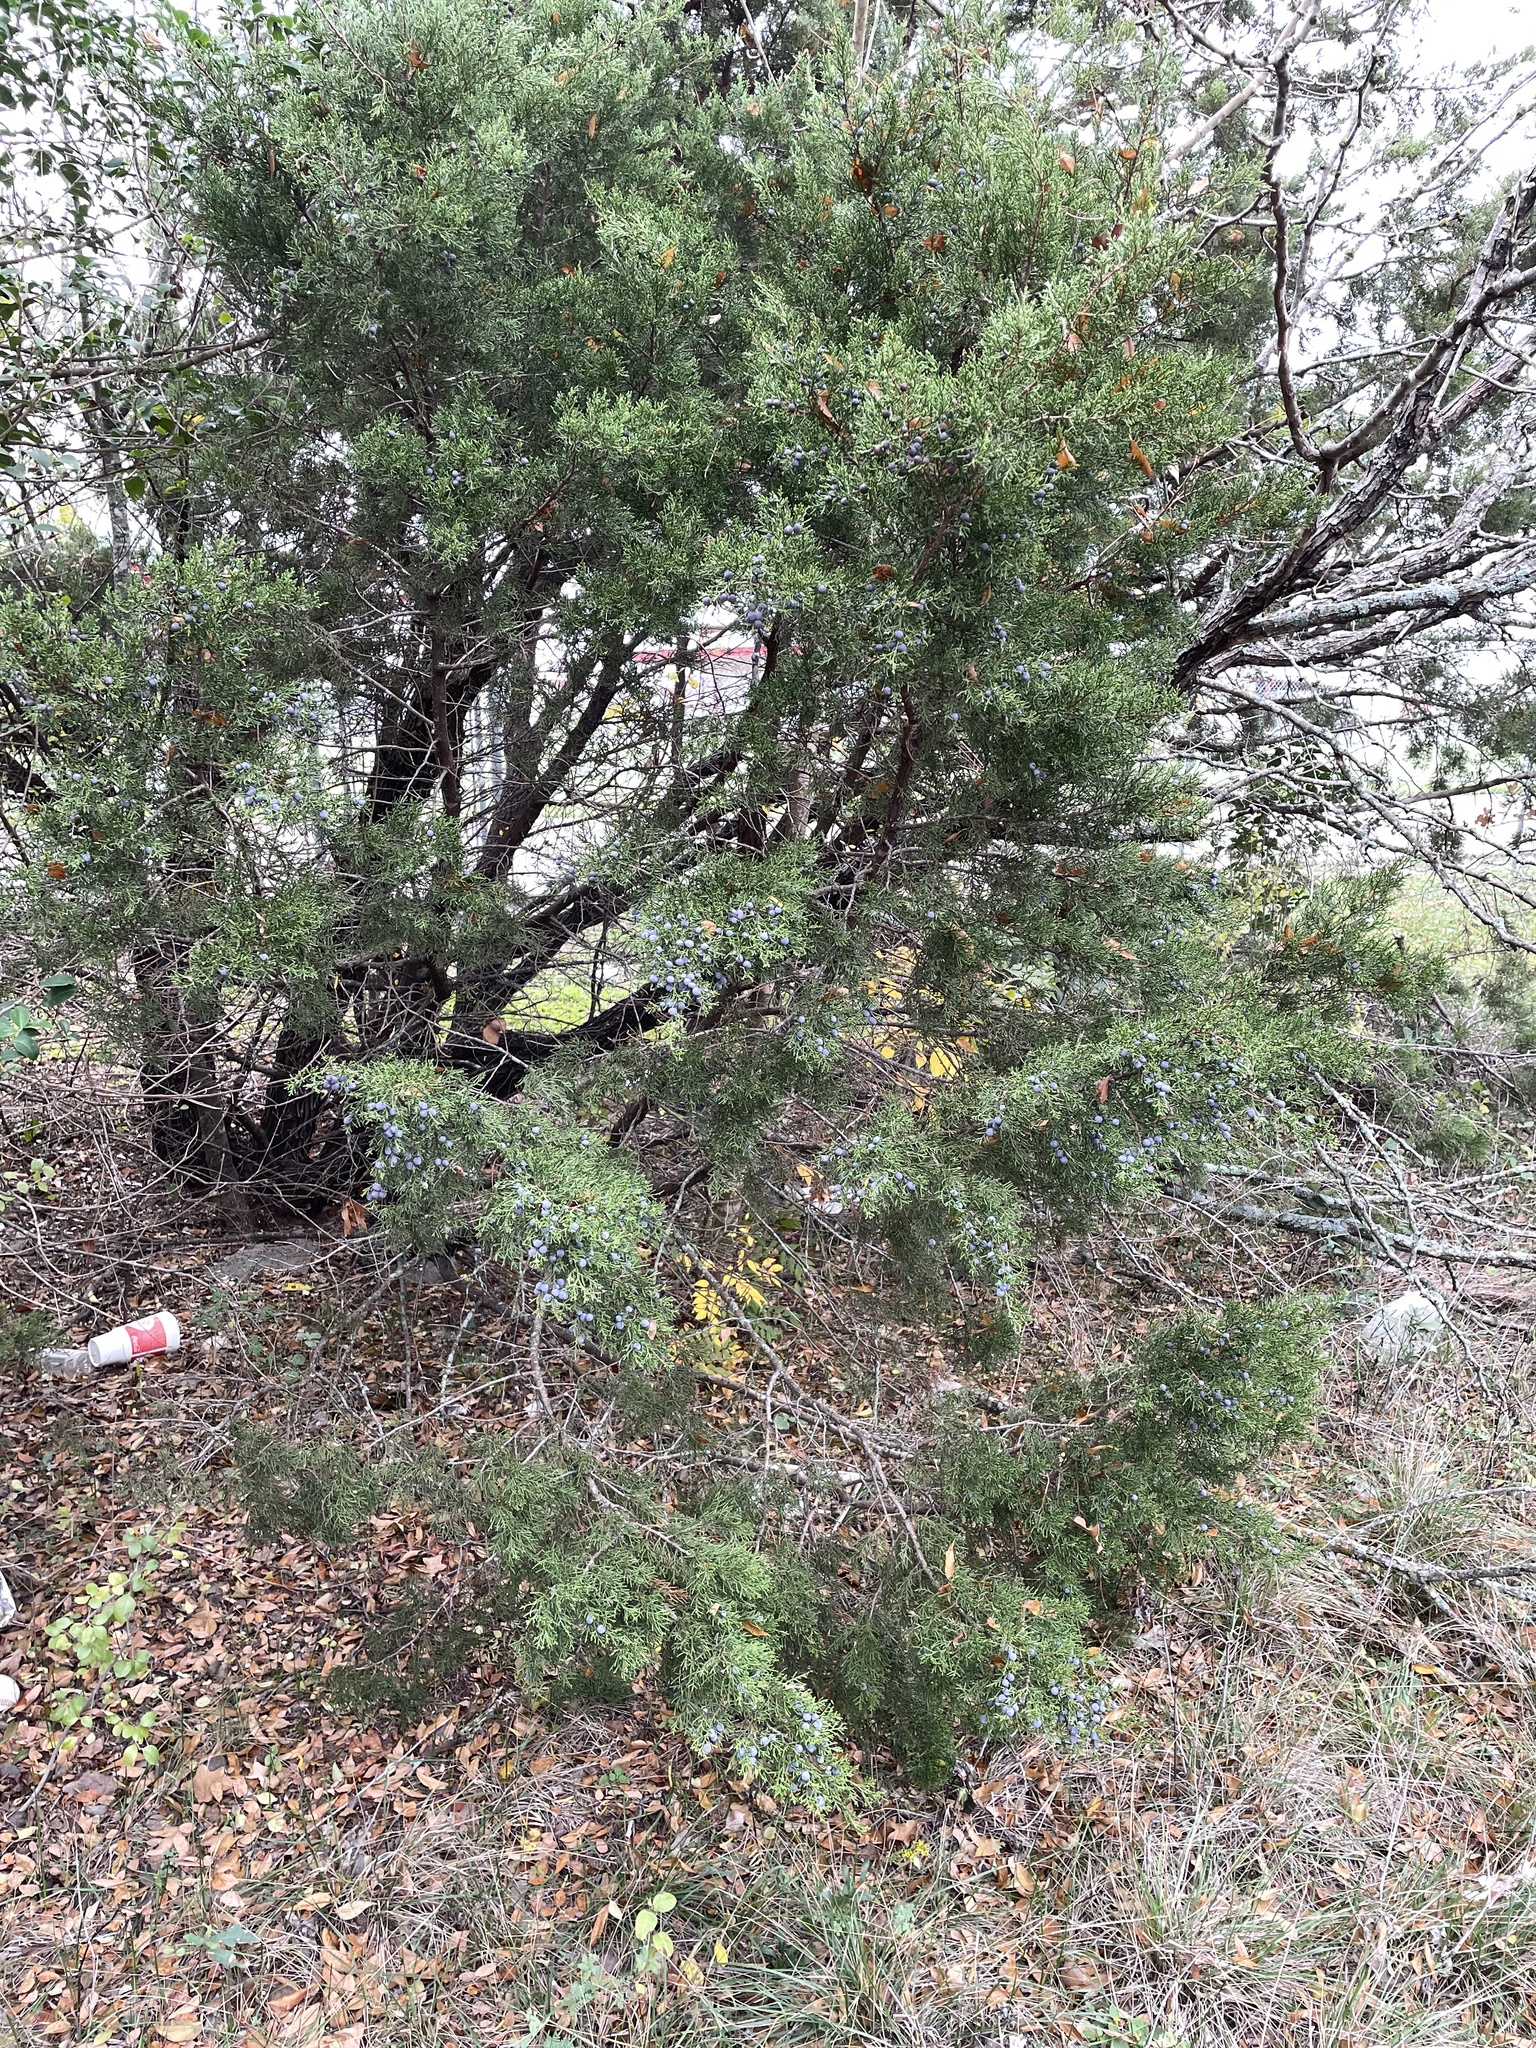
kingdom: Plantae
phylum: Tracheophyta
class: Pinopsida
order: Pinales
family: Cupressaceae
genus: Juniperus
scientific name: Juniperus ashei
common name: Mexican juniper
